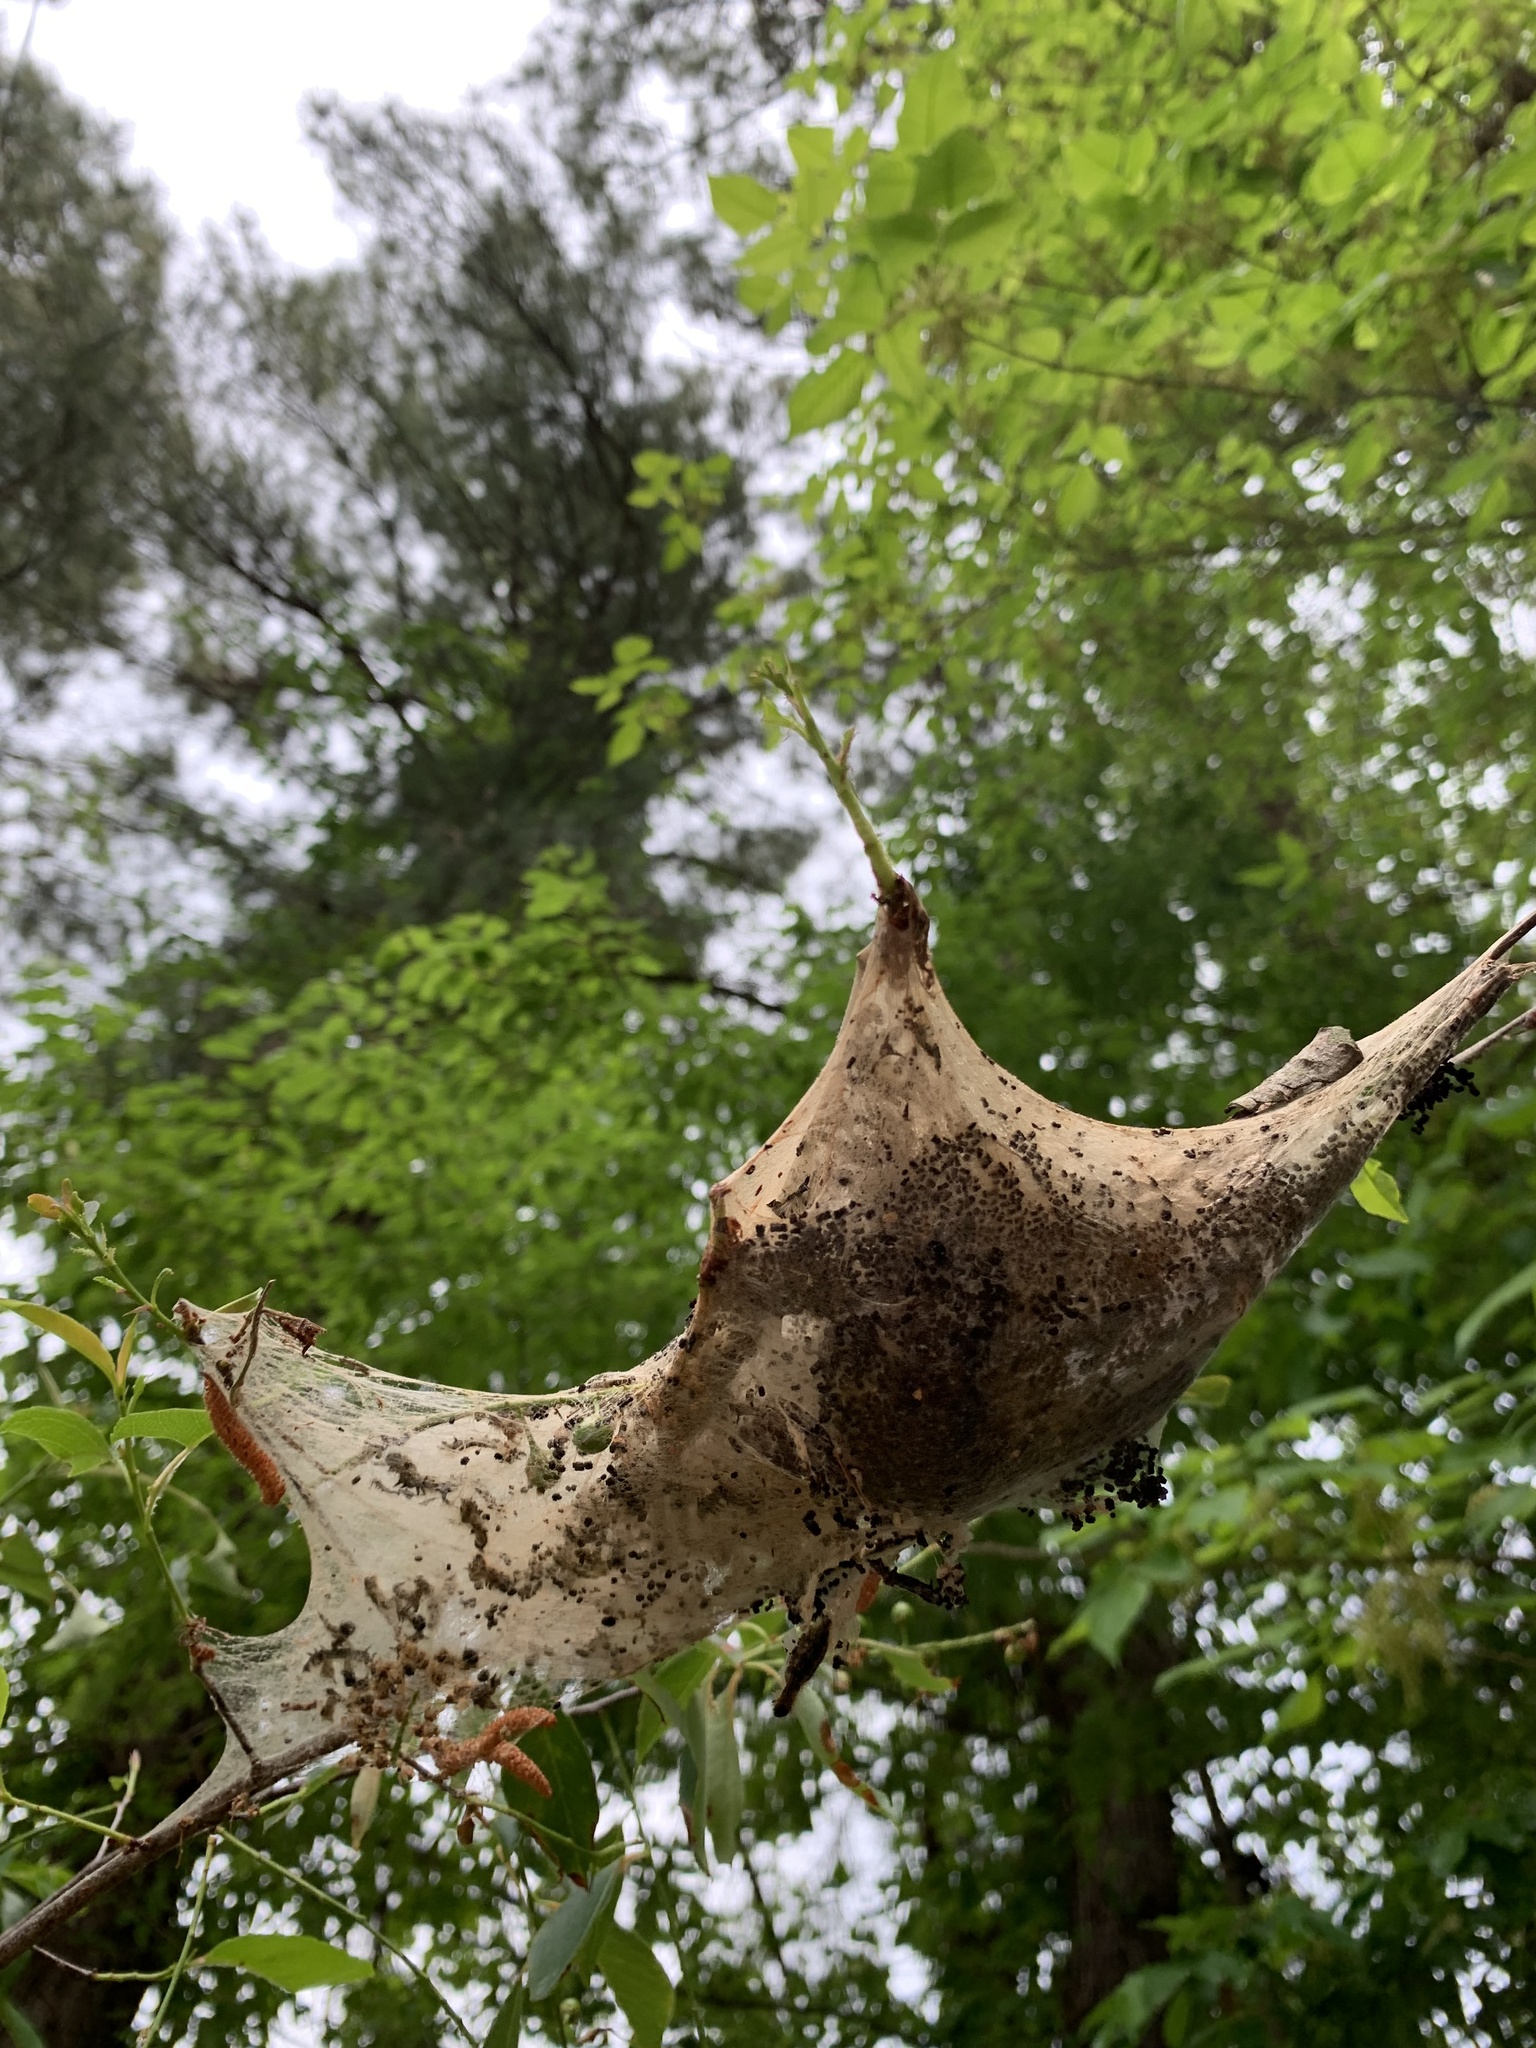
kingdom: Animalia
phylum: Arthropoda
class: Insecta
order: Lepidoptera
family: Lasiocampidae
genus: Malacosoma
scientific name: Malacosoma americana
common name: Eastern tent caterpillar moth
